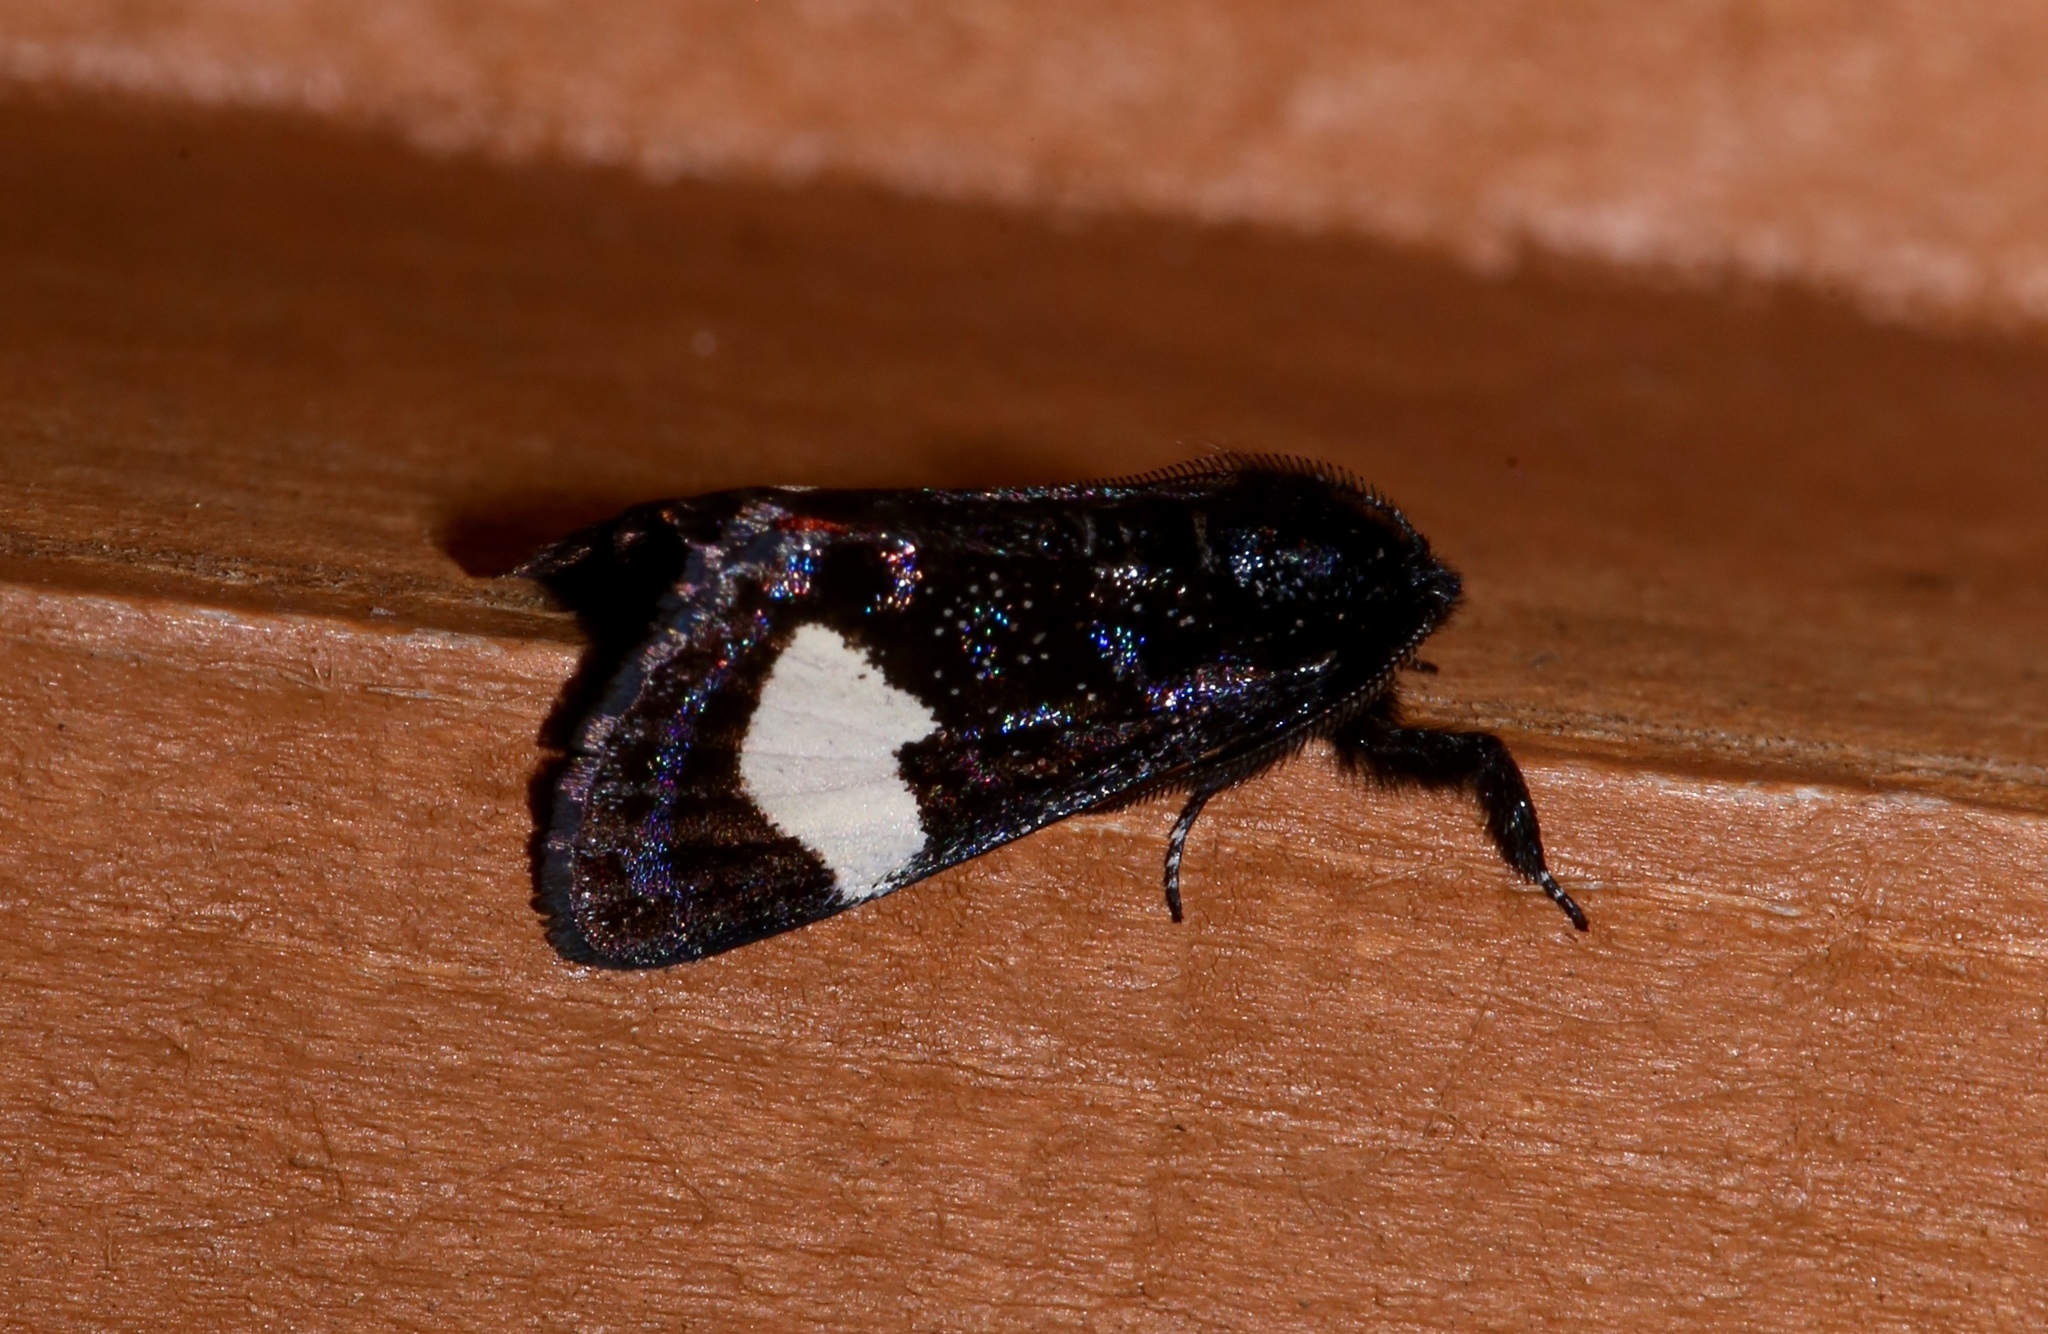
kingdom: Animalia
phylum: Arthropoda
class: Insecta
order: Lepidoptera
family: Noctuidae
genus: Psychomorpha
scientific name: Psychomorpha epimenis
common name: Grapevine epimenis moth
